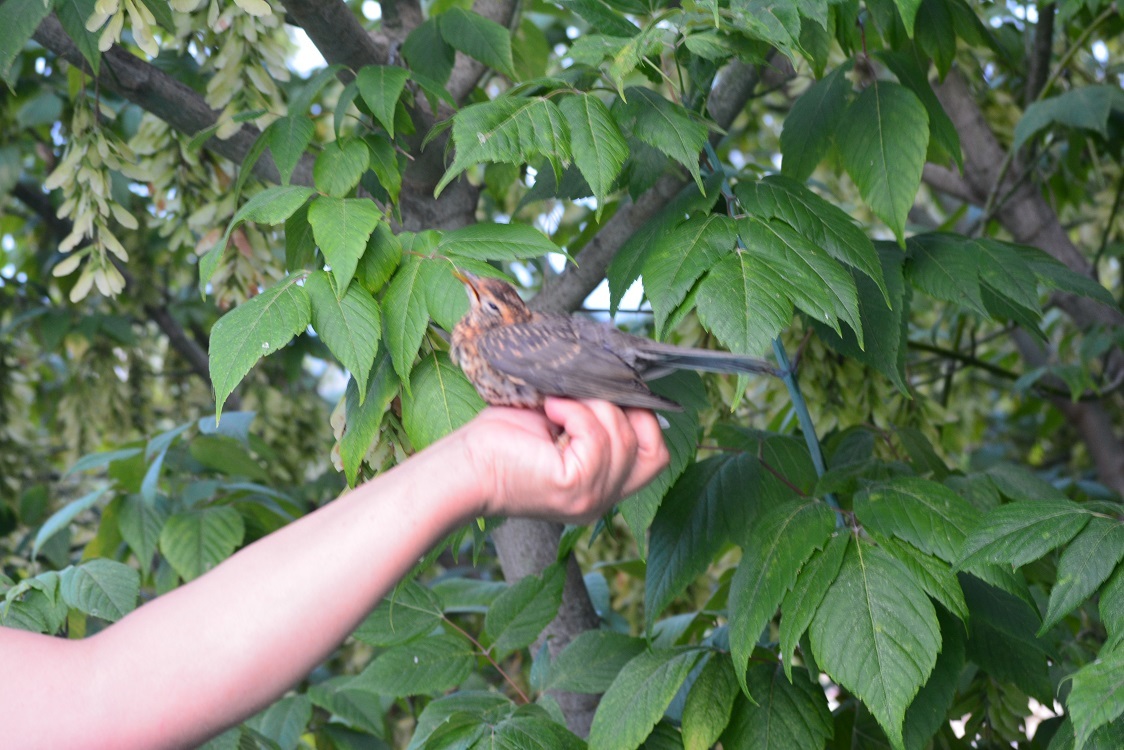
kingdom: Animalia
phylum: Chordata
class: Aves
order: Passeriformes
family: Turdidae
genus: Turdus
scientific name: Turdus rufitorques
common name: Rufous-collared thrush
